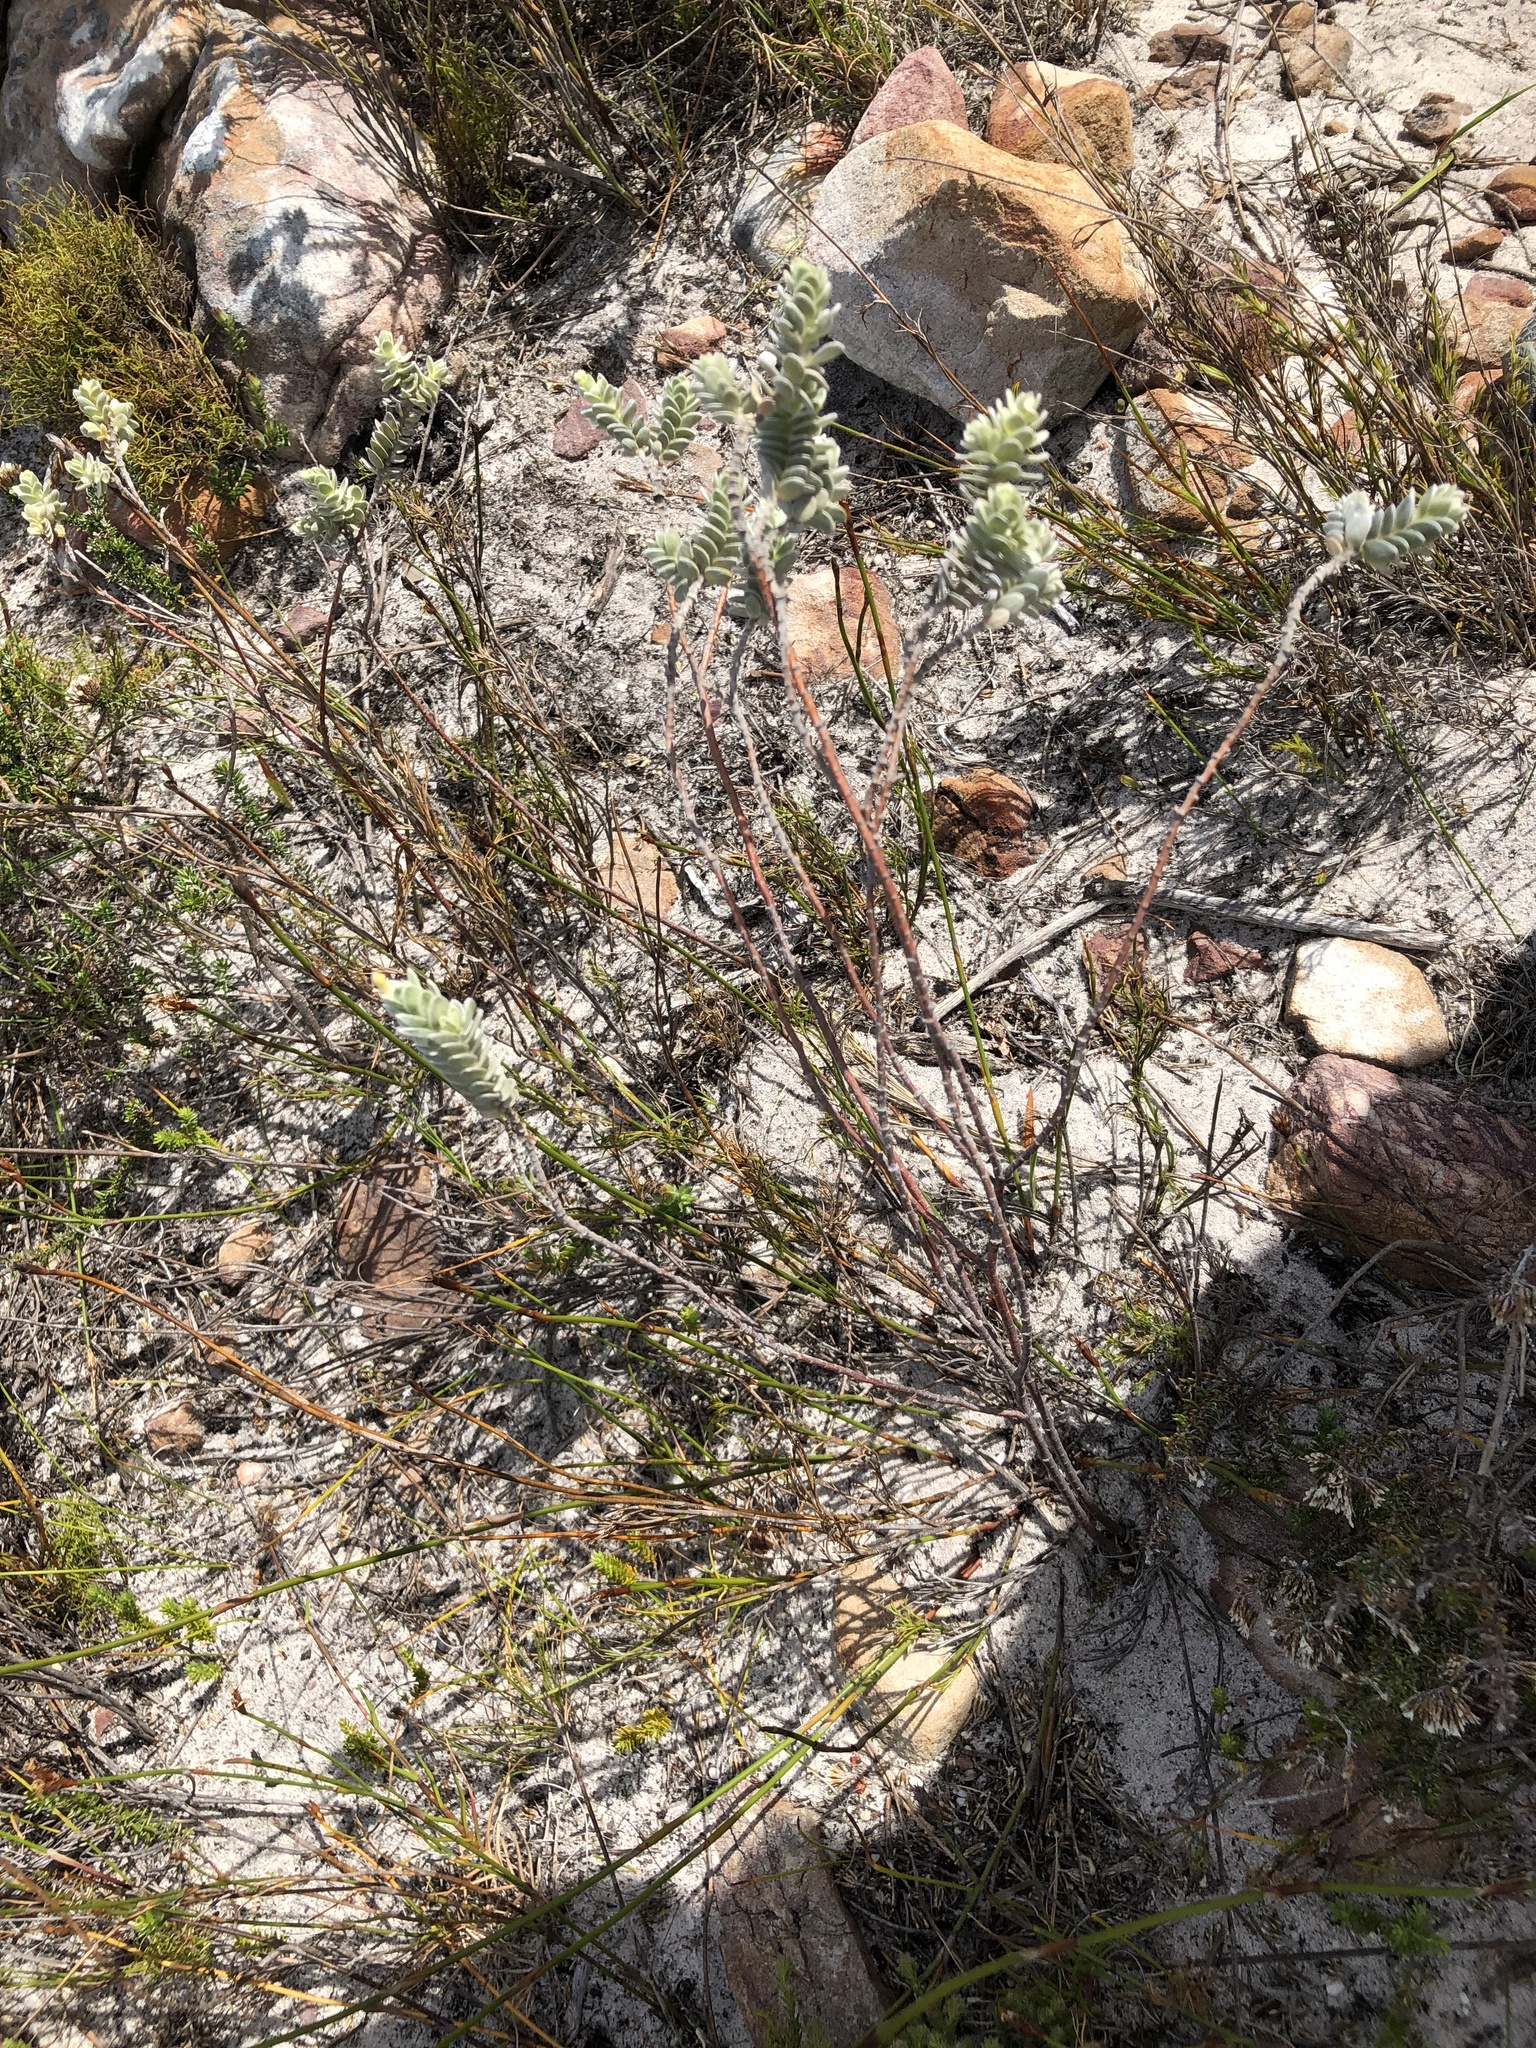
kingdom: Plantae
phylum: Tracheophyta
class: Magnoliopsida
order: Malvales
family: Thymelaeaceae
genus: Gnidia
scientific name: Gnidia imbricata
